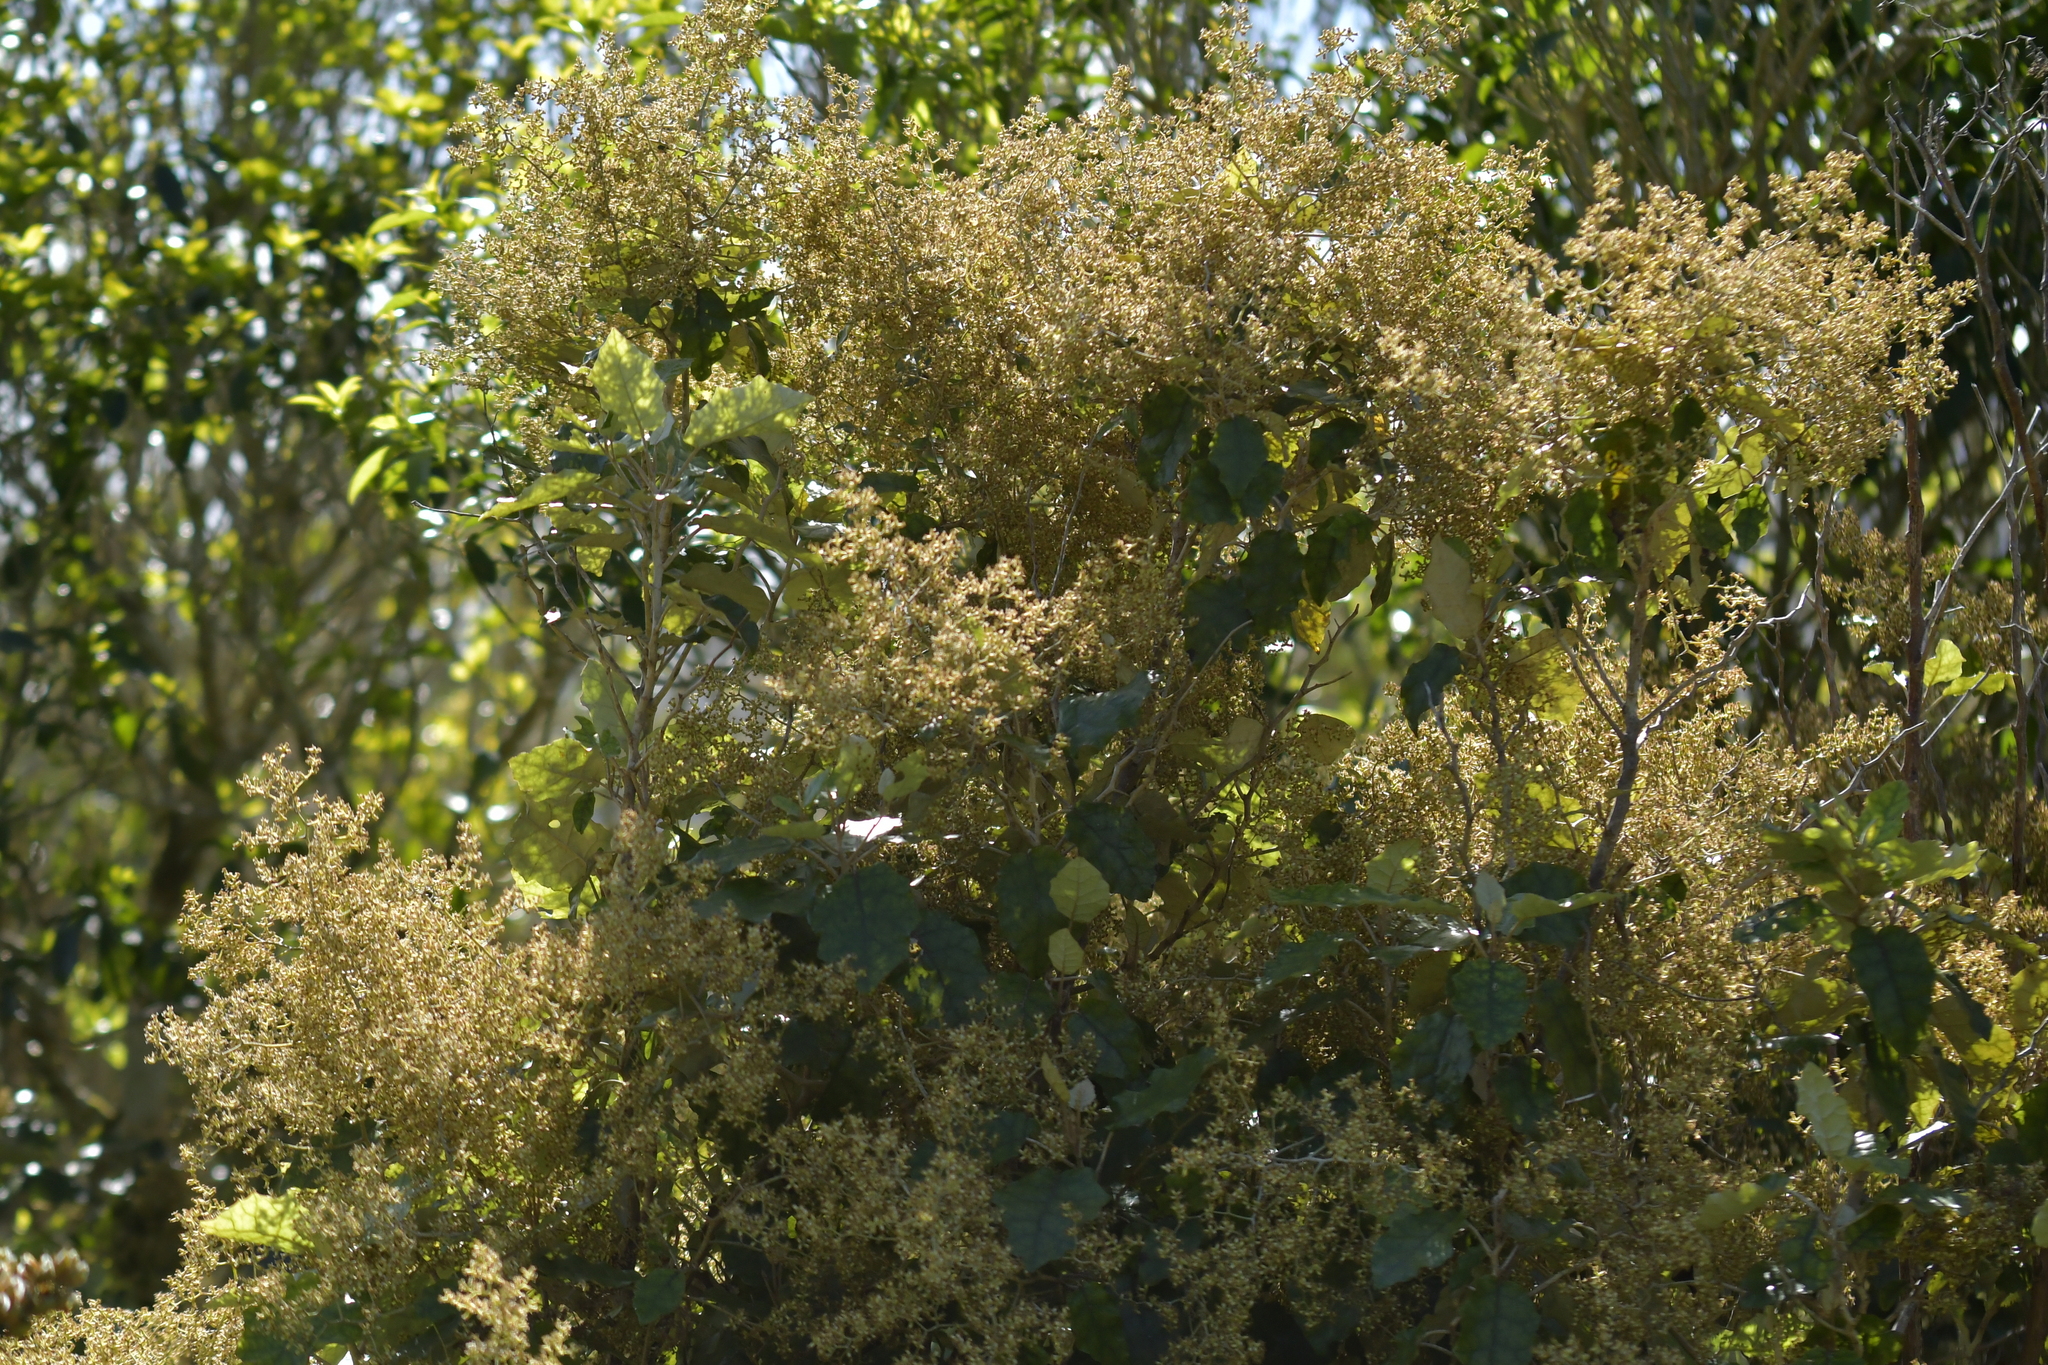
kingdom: Plantae
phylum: Tracheophyta
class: Magnoliopsida
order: Asterales
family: Asteraceae
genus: Brachyglottis
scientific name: Brachyglottis repanda
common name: Hedge ragwort
